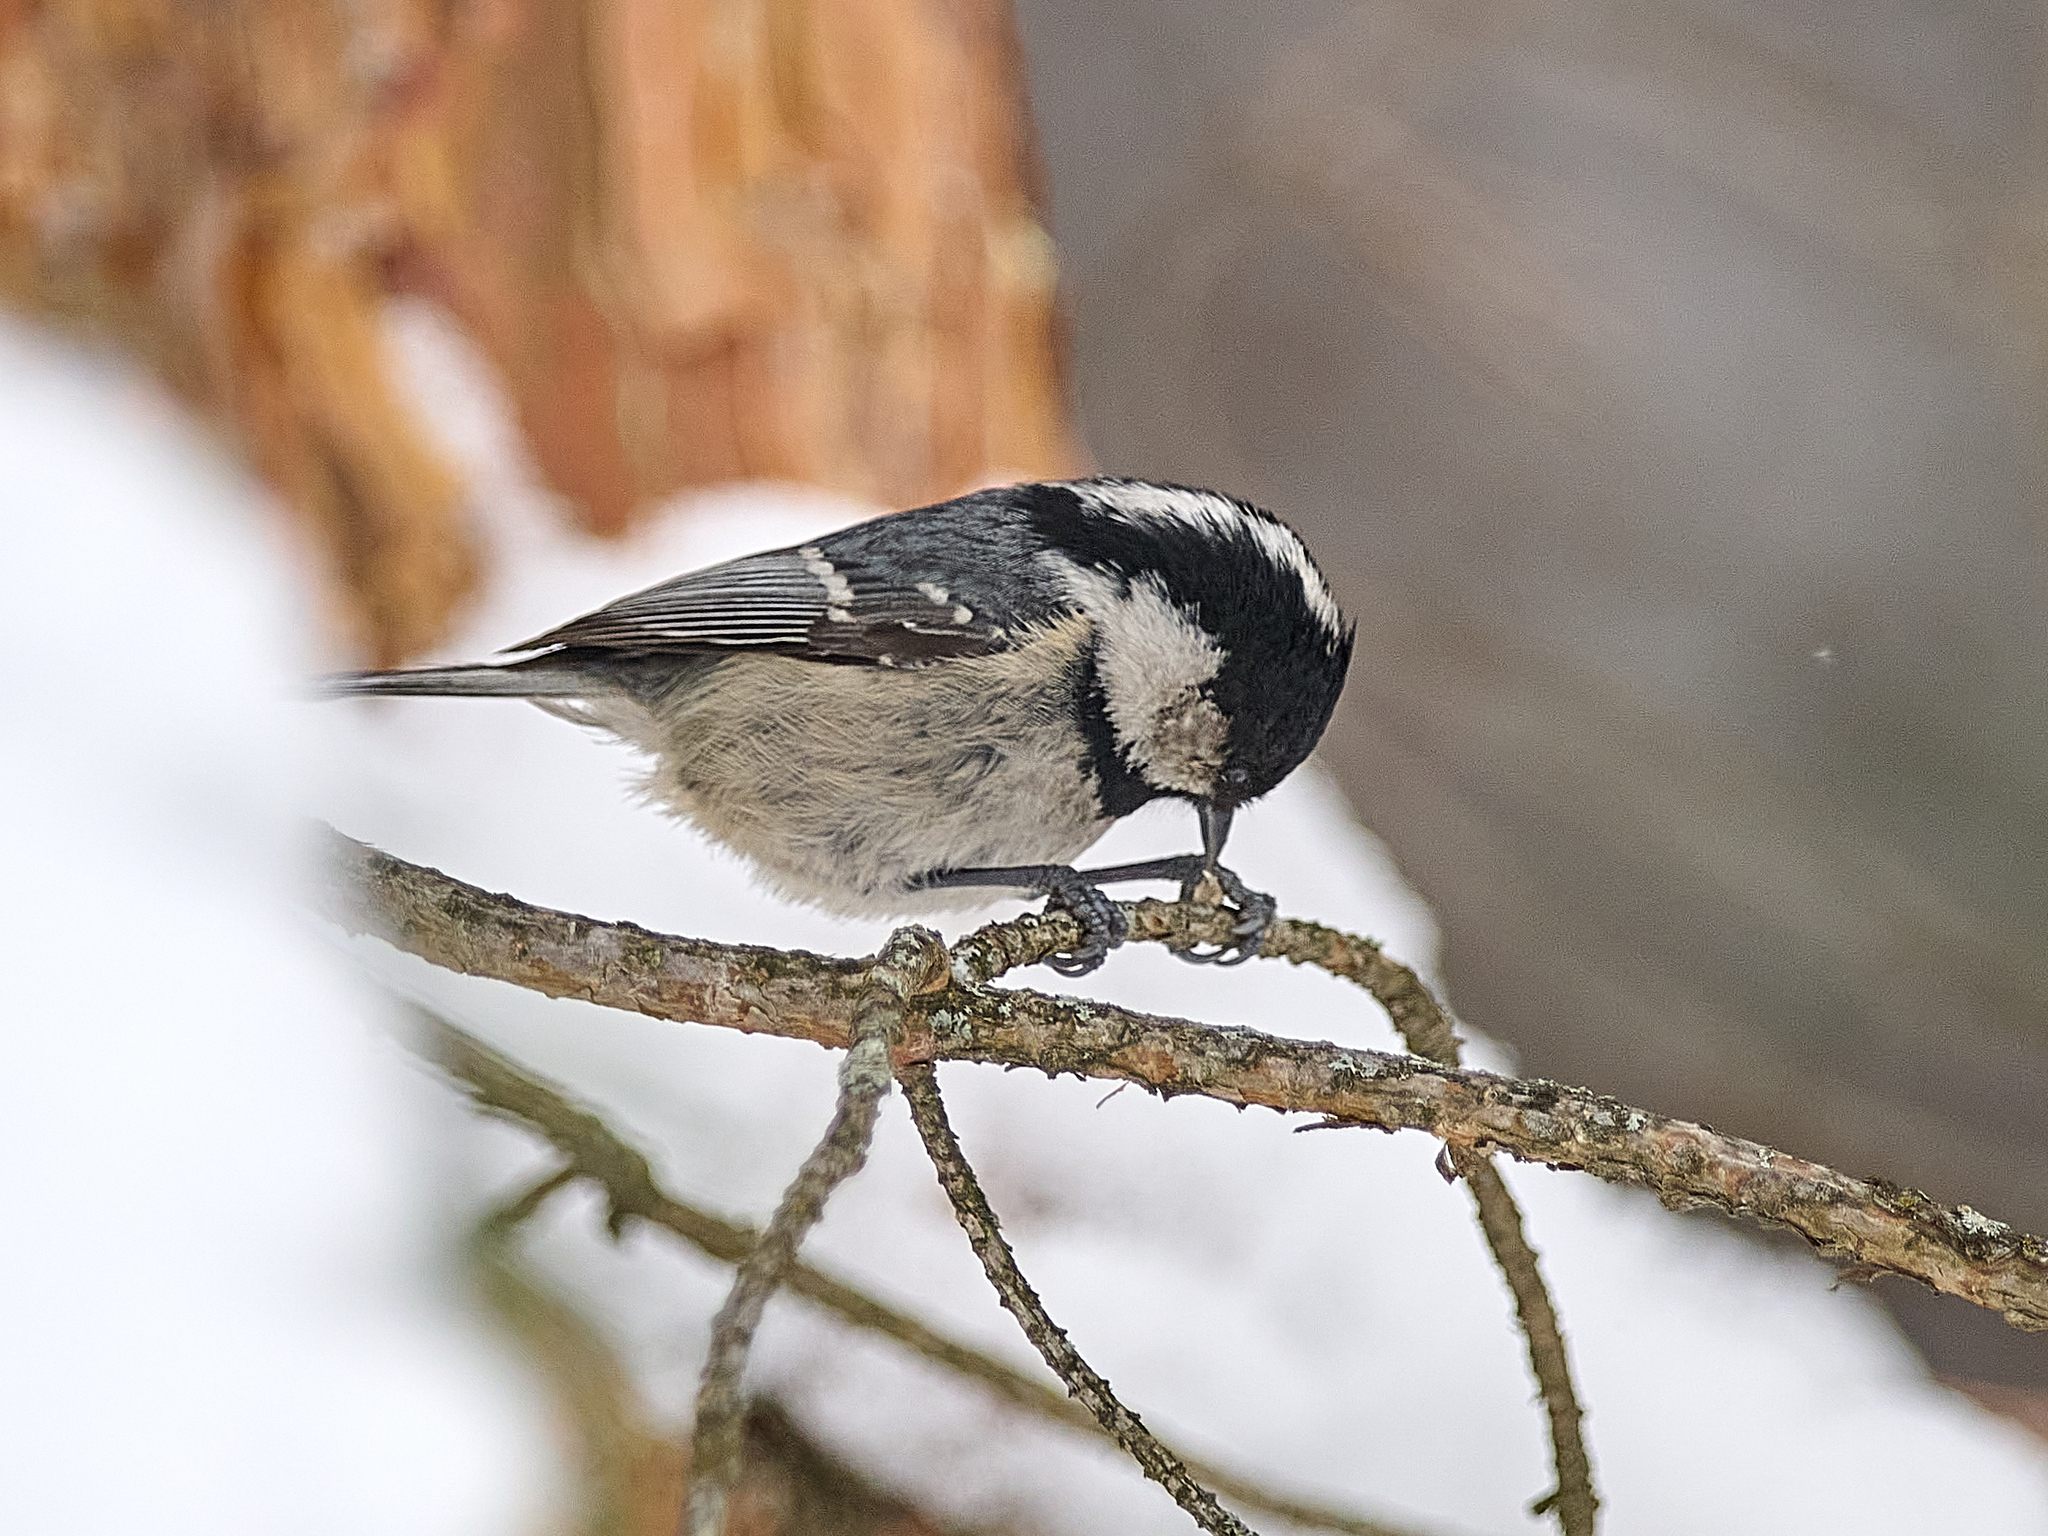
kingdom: Animalia
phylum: Chordata
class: Aves
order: Passeriformes
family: Paridae
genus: Periparus
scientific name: Periparus ater
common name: Coal tit
